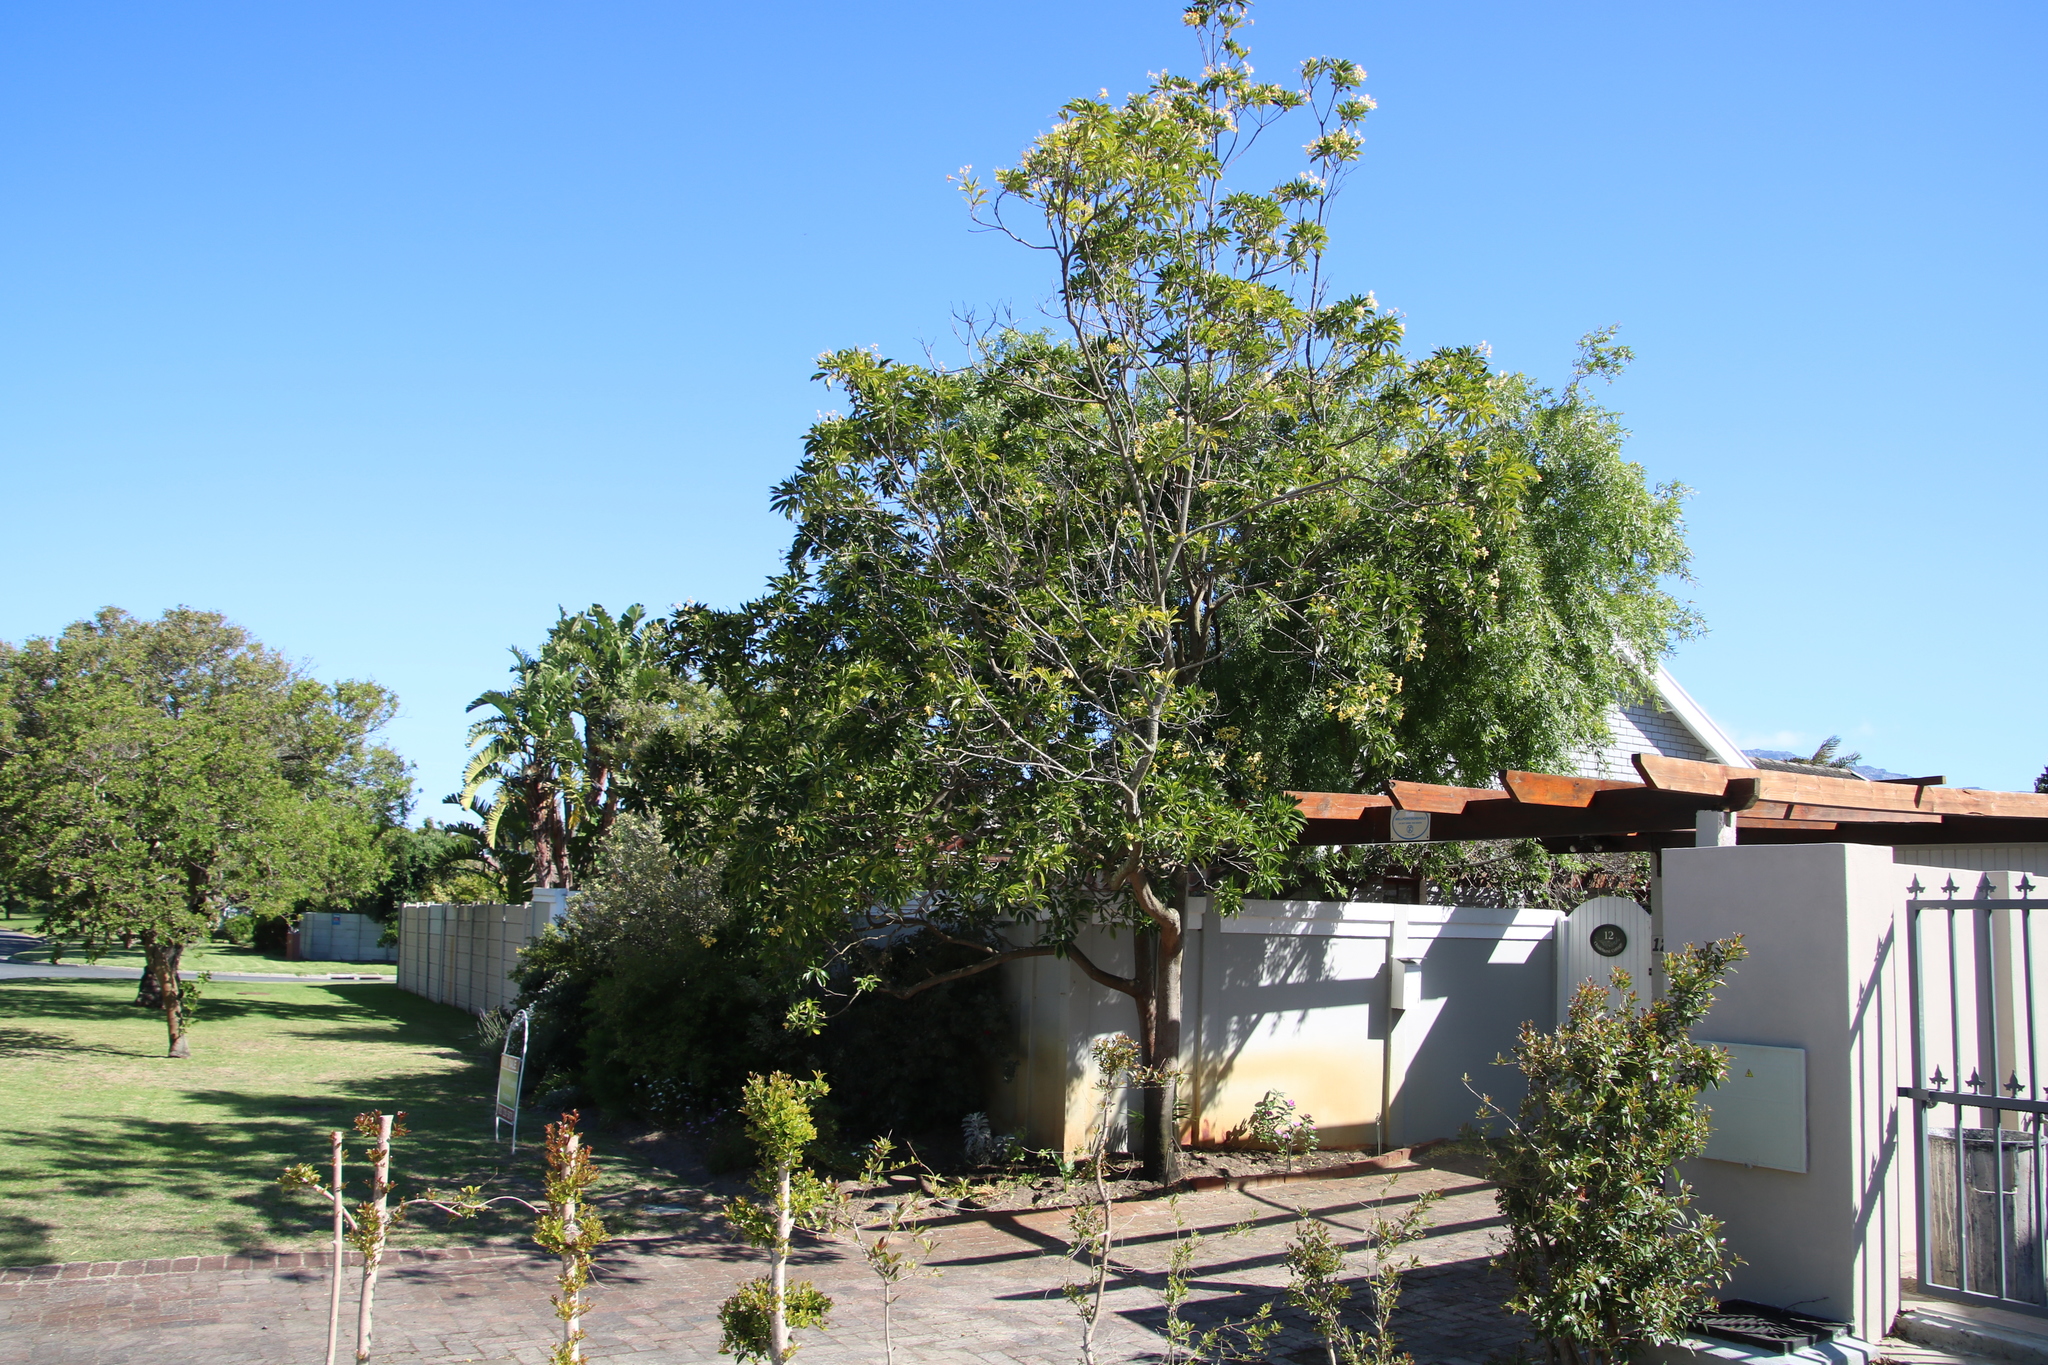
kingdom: Plantae
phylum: Tracheophyta
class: Magnoliopsida
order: Apiales
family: Pittosporaceae
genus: Hymenosporum
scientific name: Hymenosporum flavum
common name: Native frangipani
